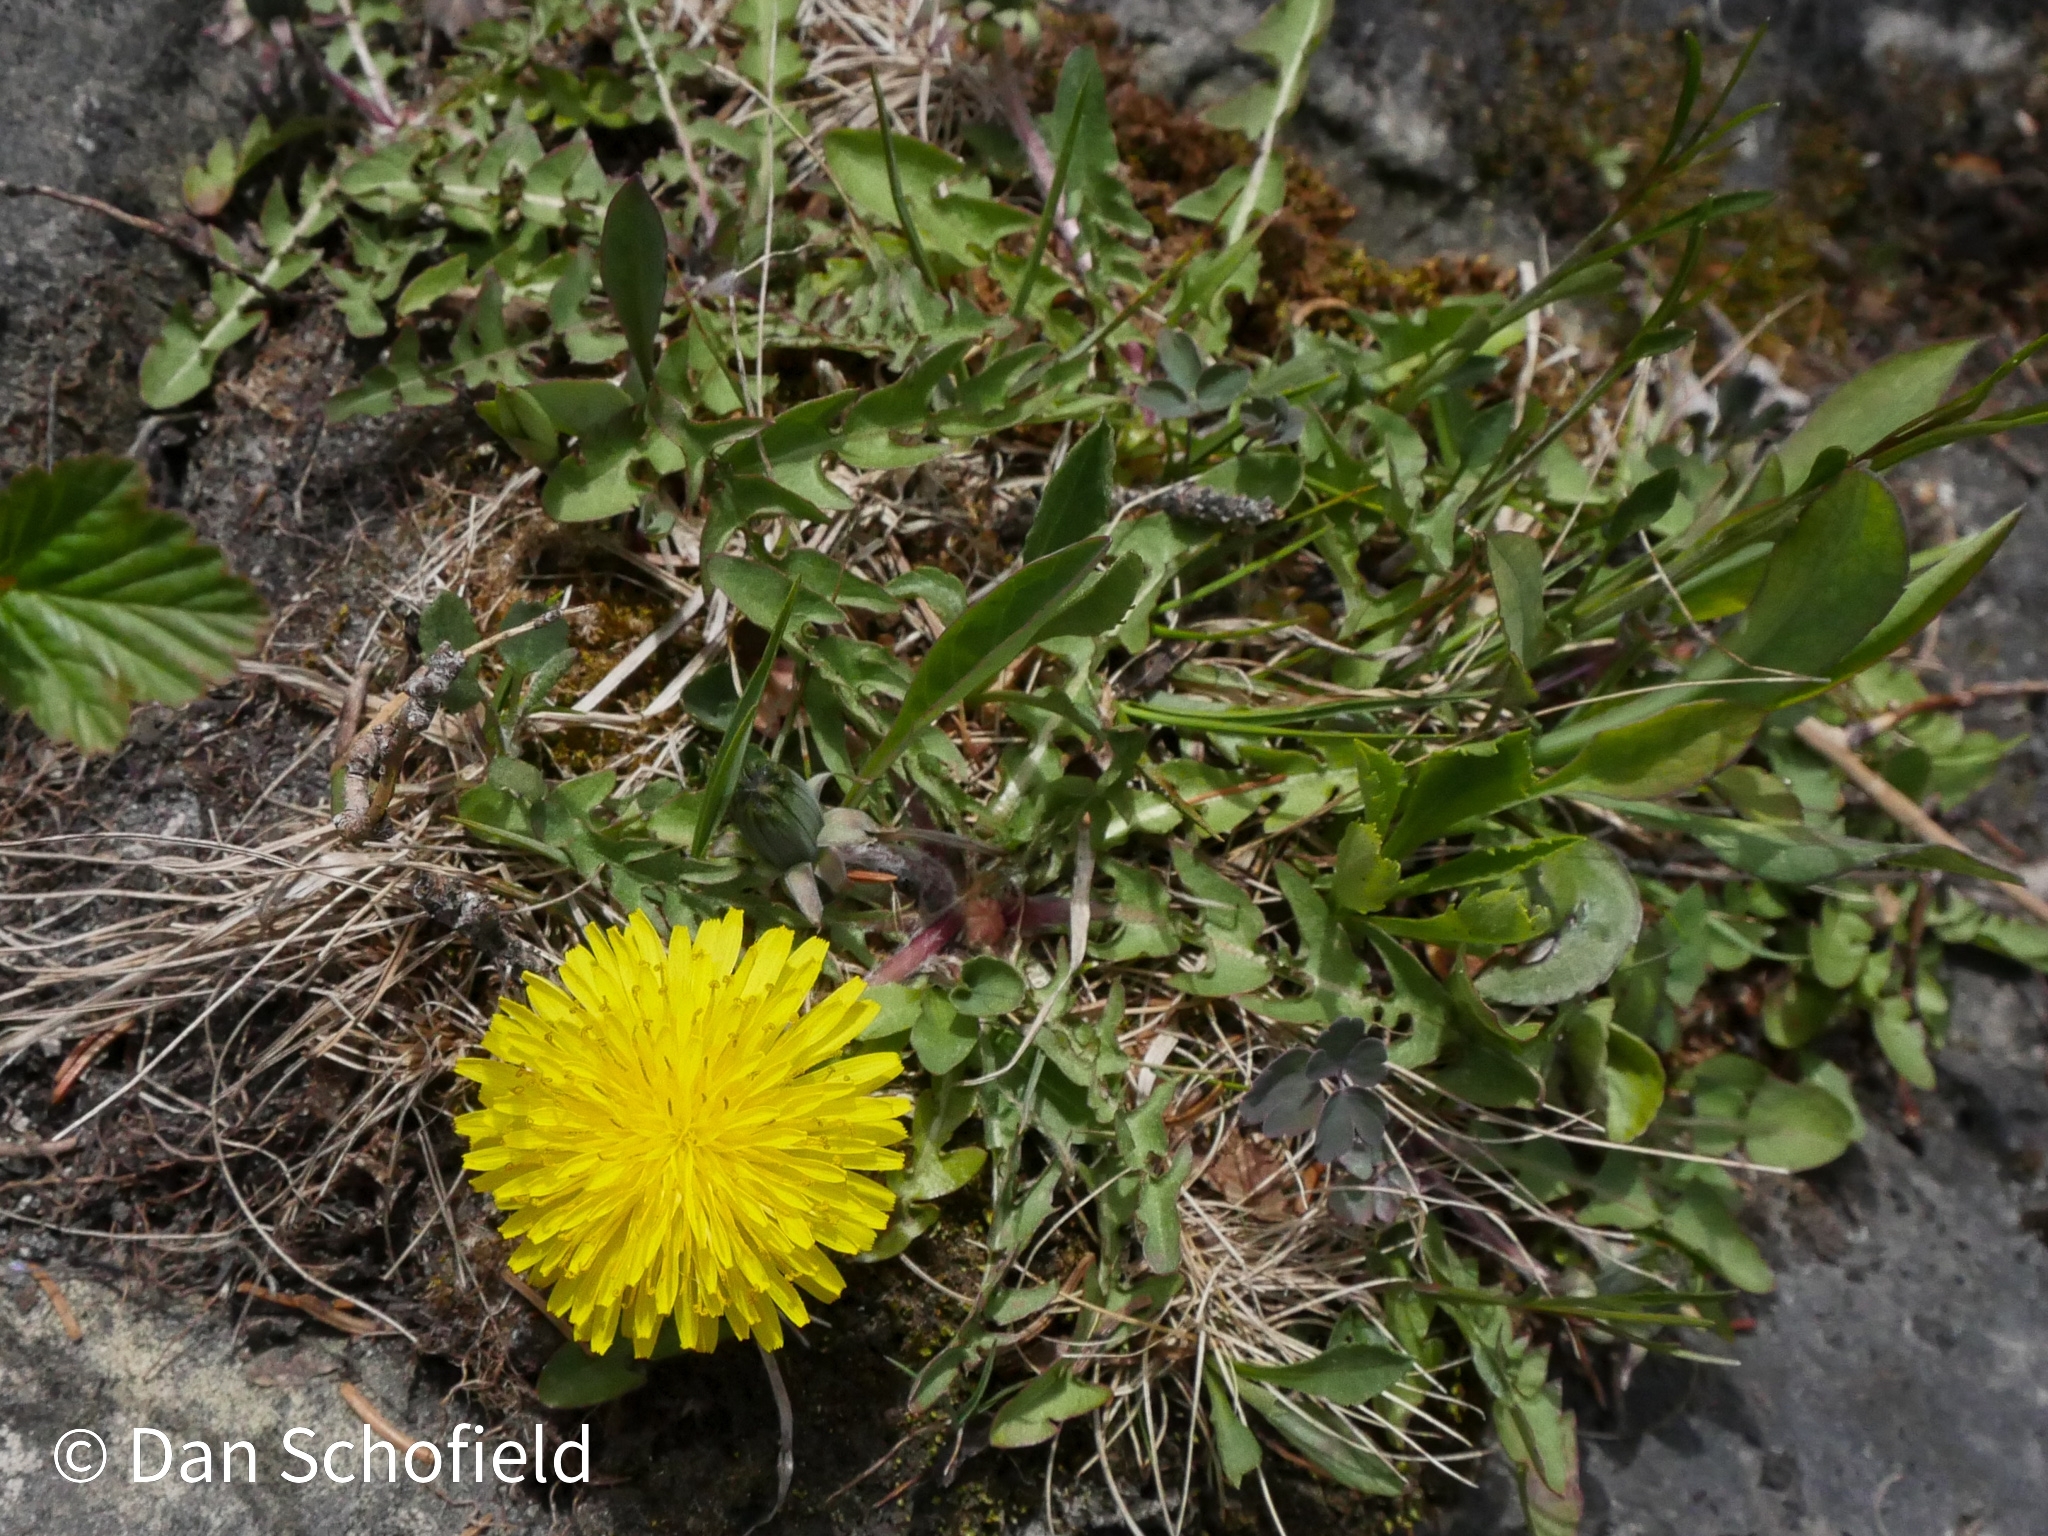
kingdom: Plantae
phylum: Tracheophyta
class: Magnoliopsida
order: Asterales
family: Asteraceae
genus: Taraxacum
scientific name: Taraxacum officinale
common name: Common dandelion
